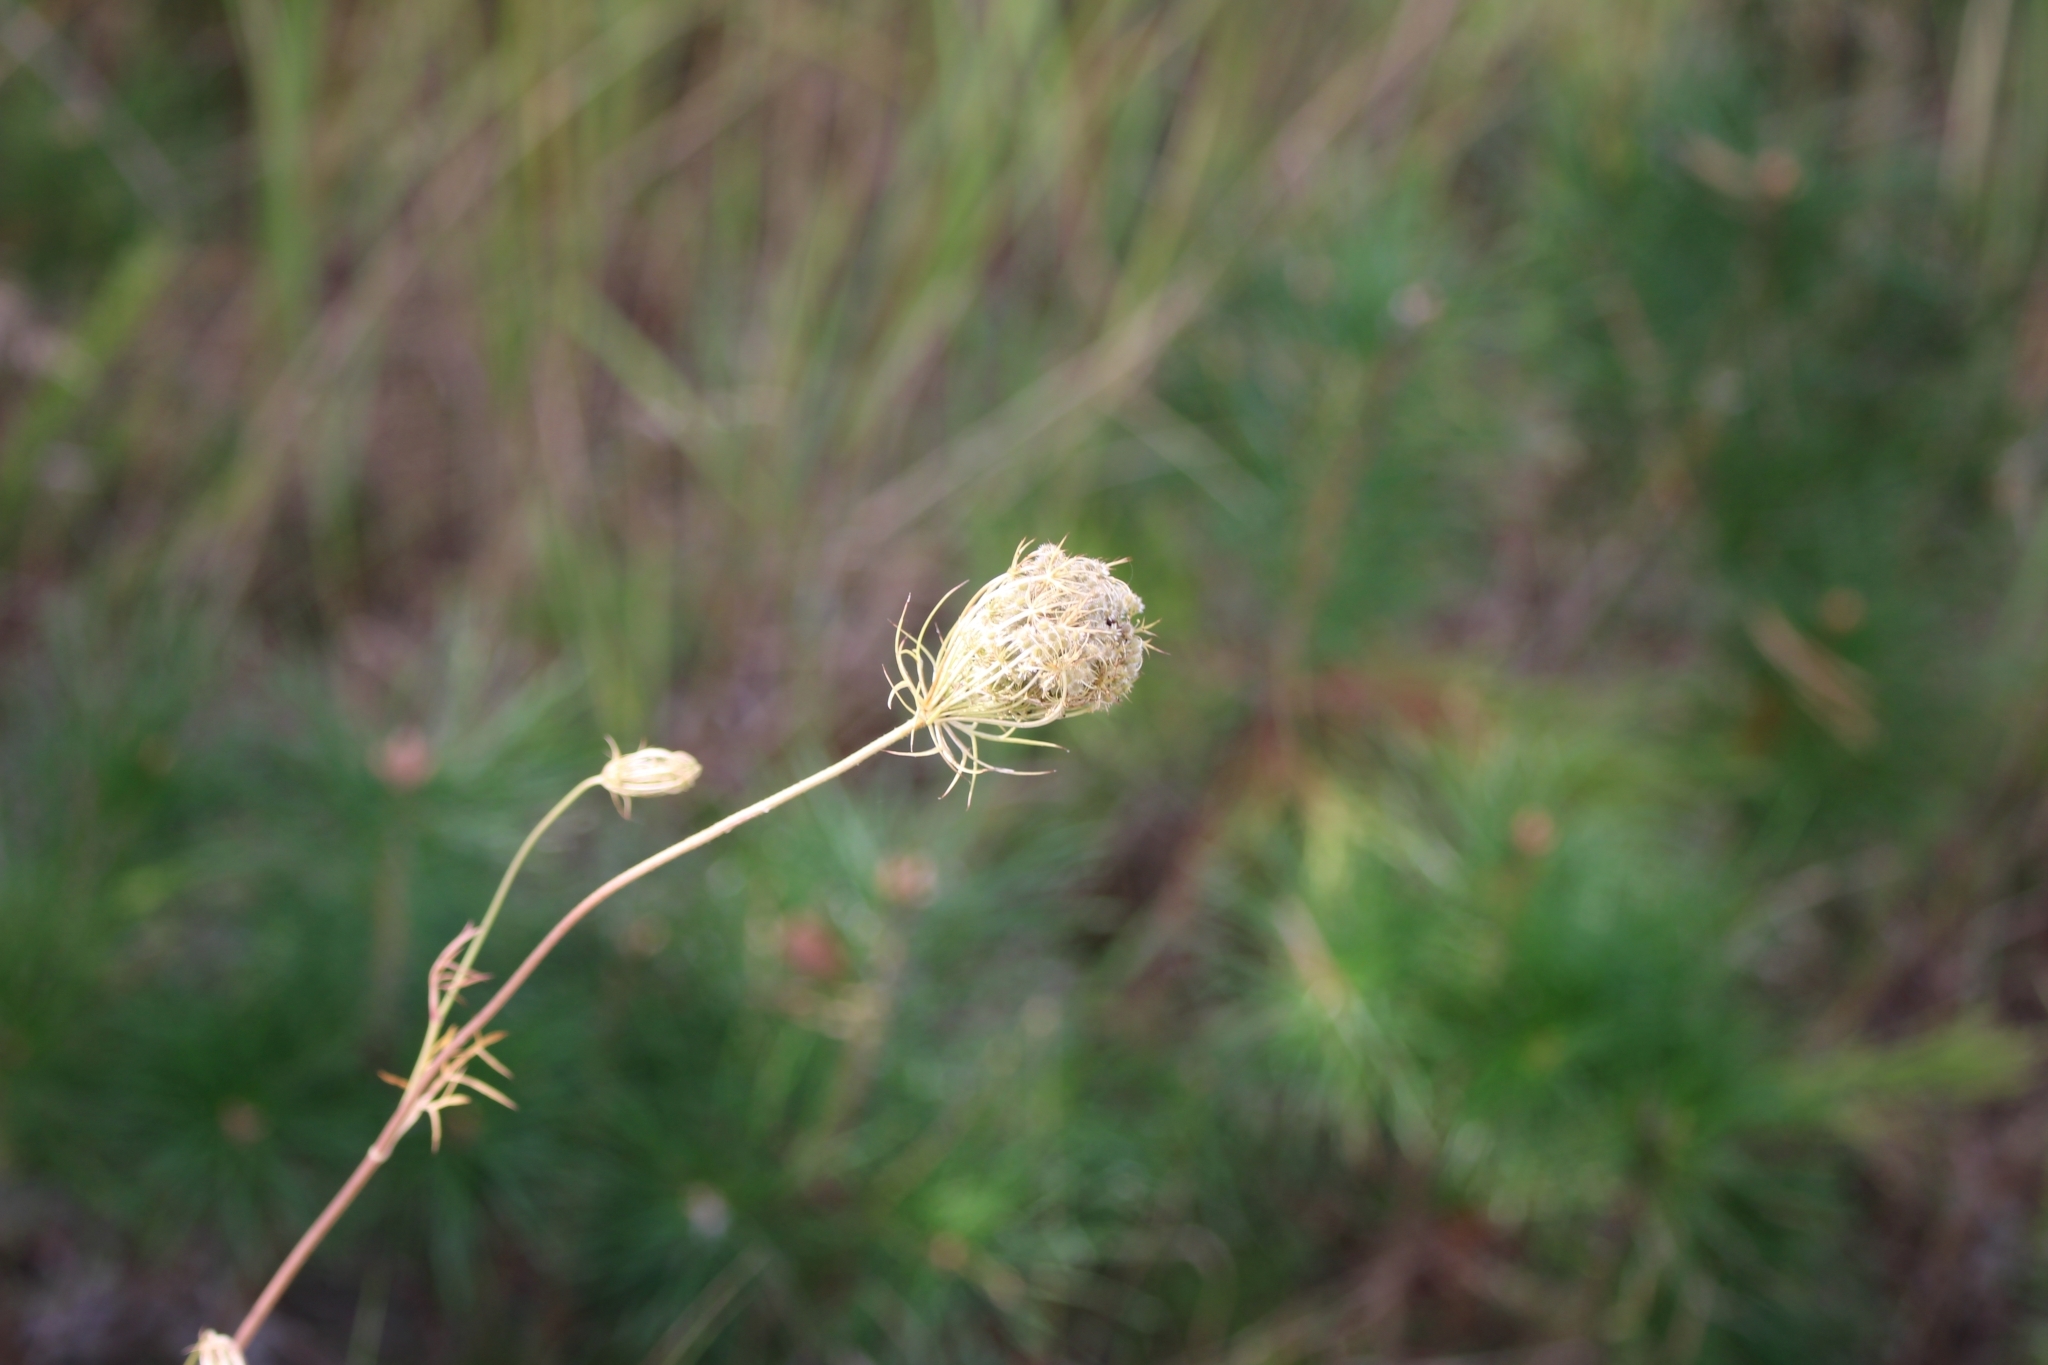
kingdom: Plantae
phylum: Tracheophyta
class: Magnoliopsida
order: Apiales
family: Apiaceae
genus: Daucus
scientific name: Daucus carota
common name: Wild carrot
